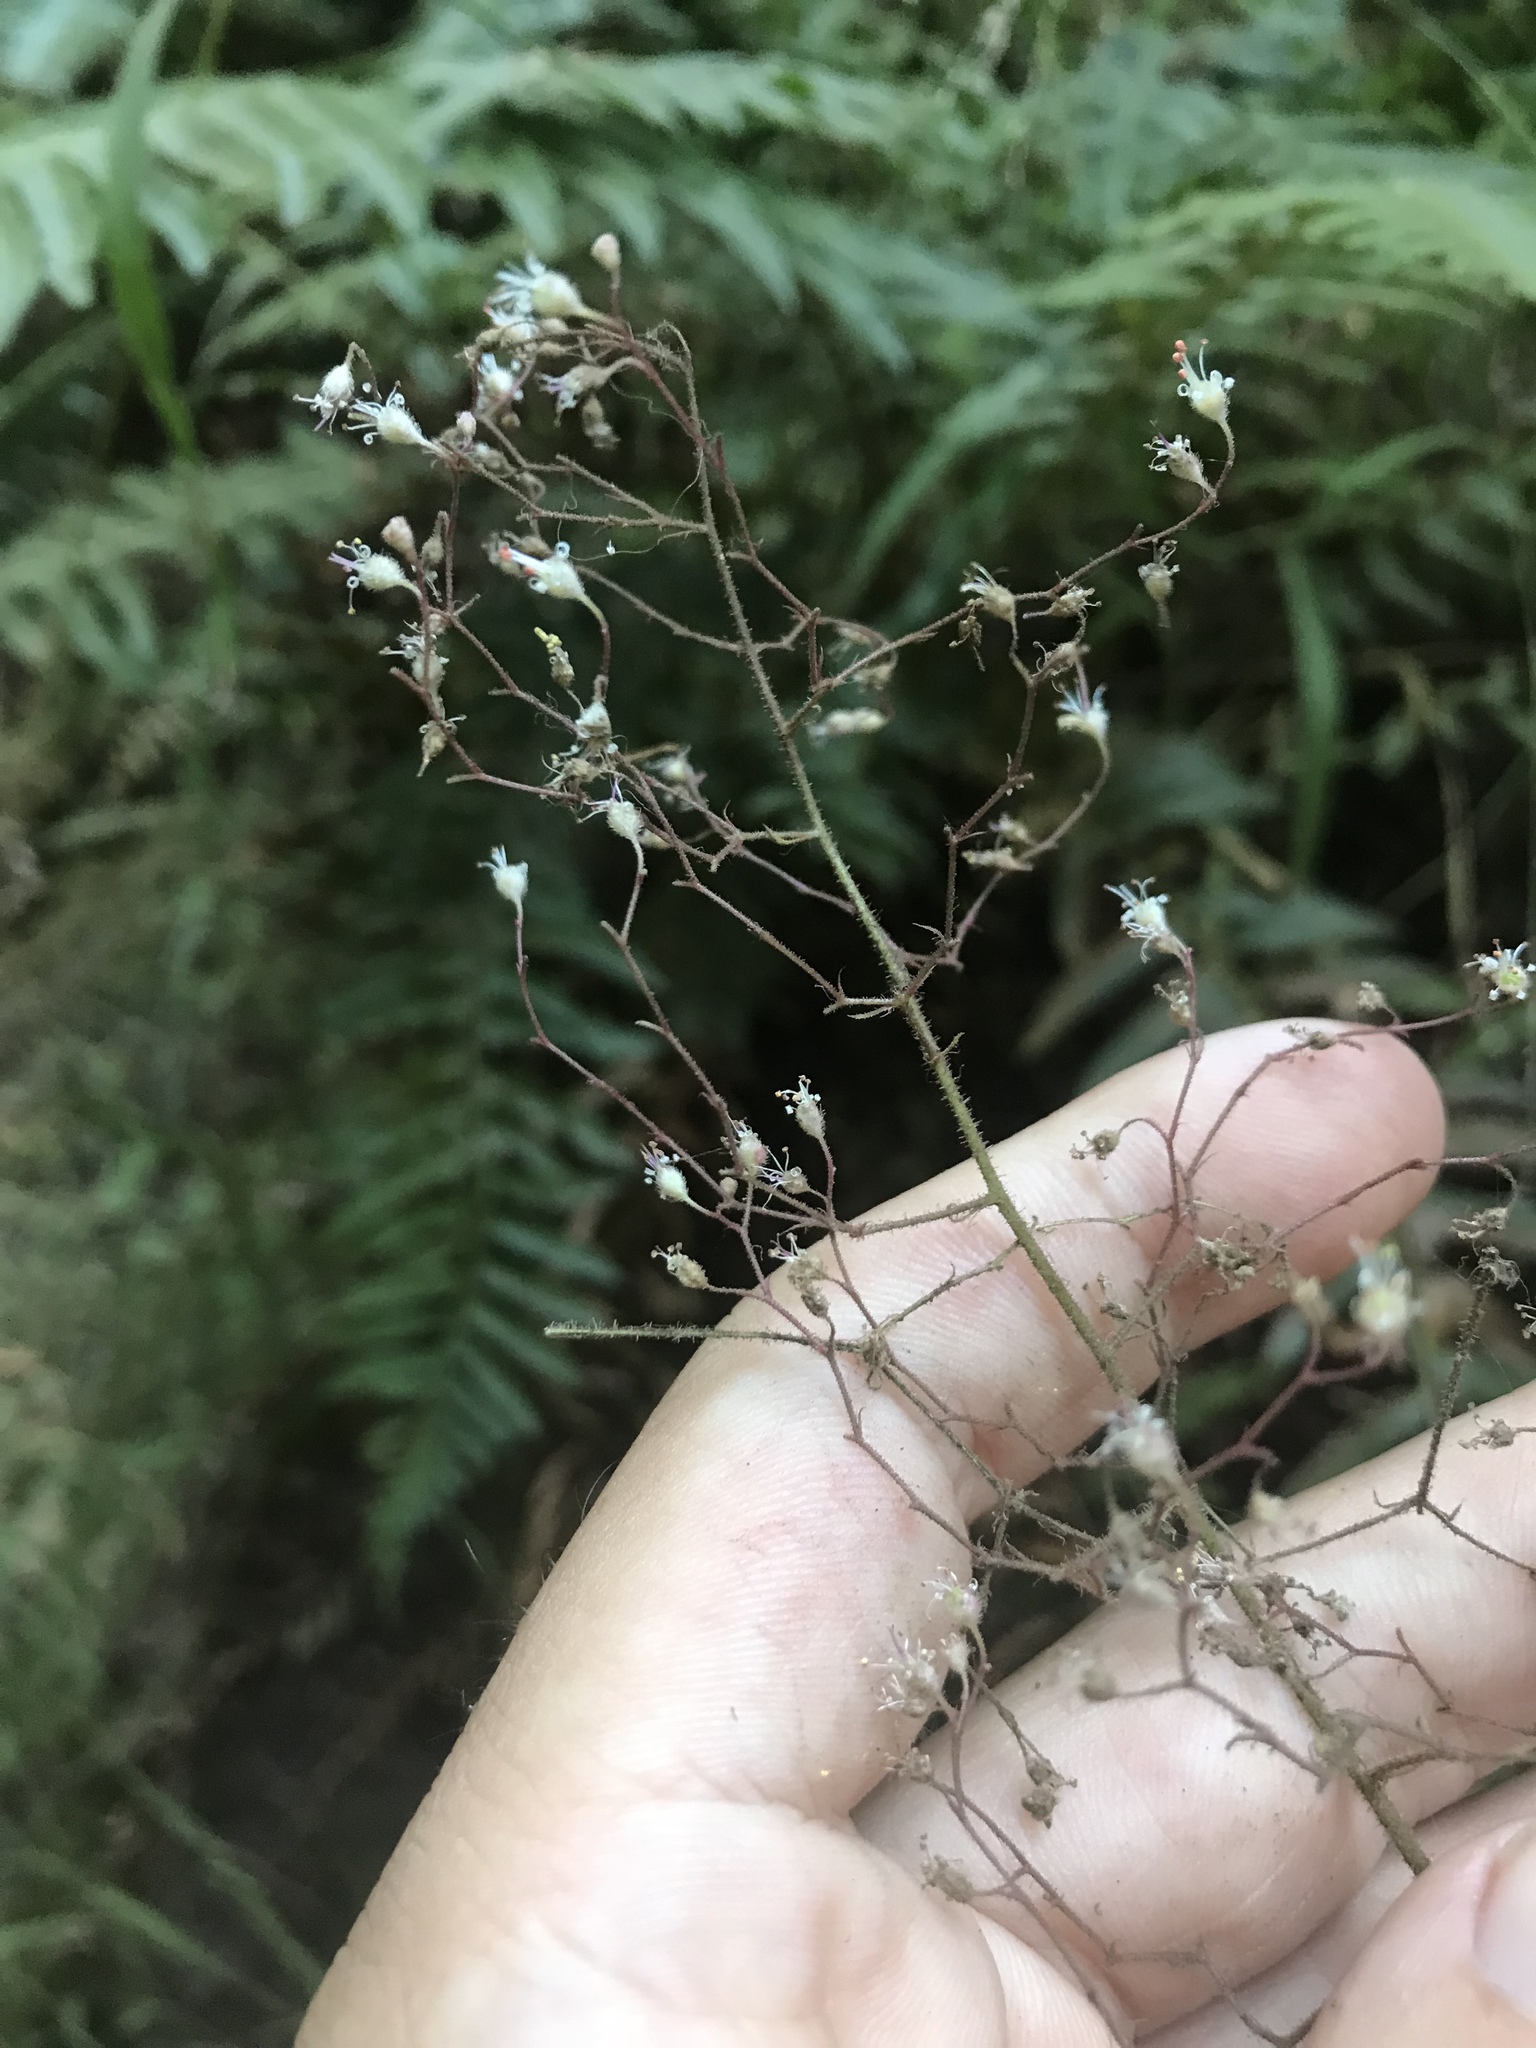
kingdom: Plantae
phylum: Tracheophyta
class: Magnoliopsida
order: Saxifragales
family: Saxifragaceae
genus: Heuchera
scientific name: Heuchera micrantha
